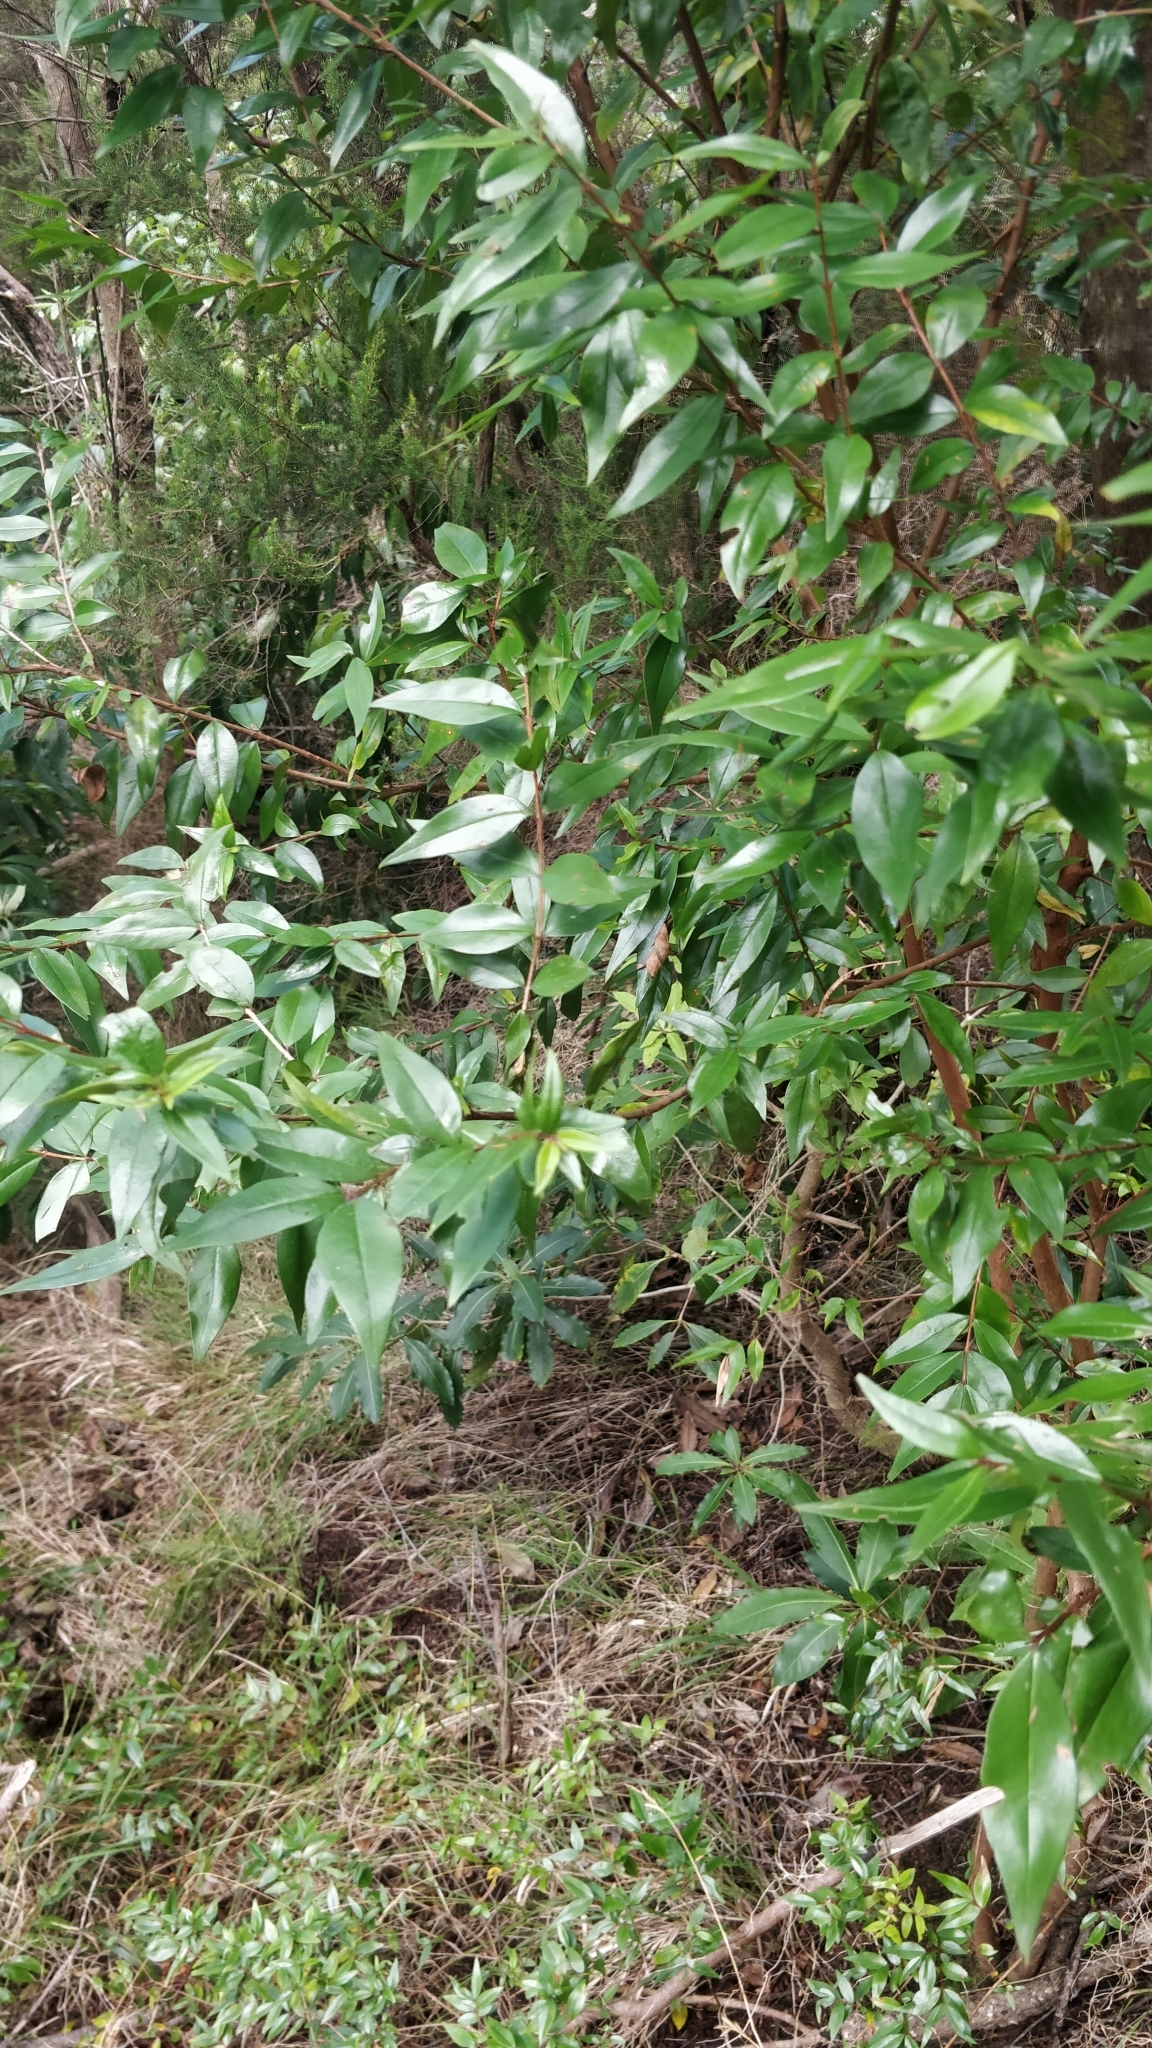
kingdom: Plantae
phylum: Tracheophyta
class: Magnoliopsida
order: Myrtales
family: Myrtaceae
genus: Myrtus
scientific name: Myrtus communis
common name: Myrtle
